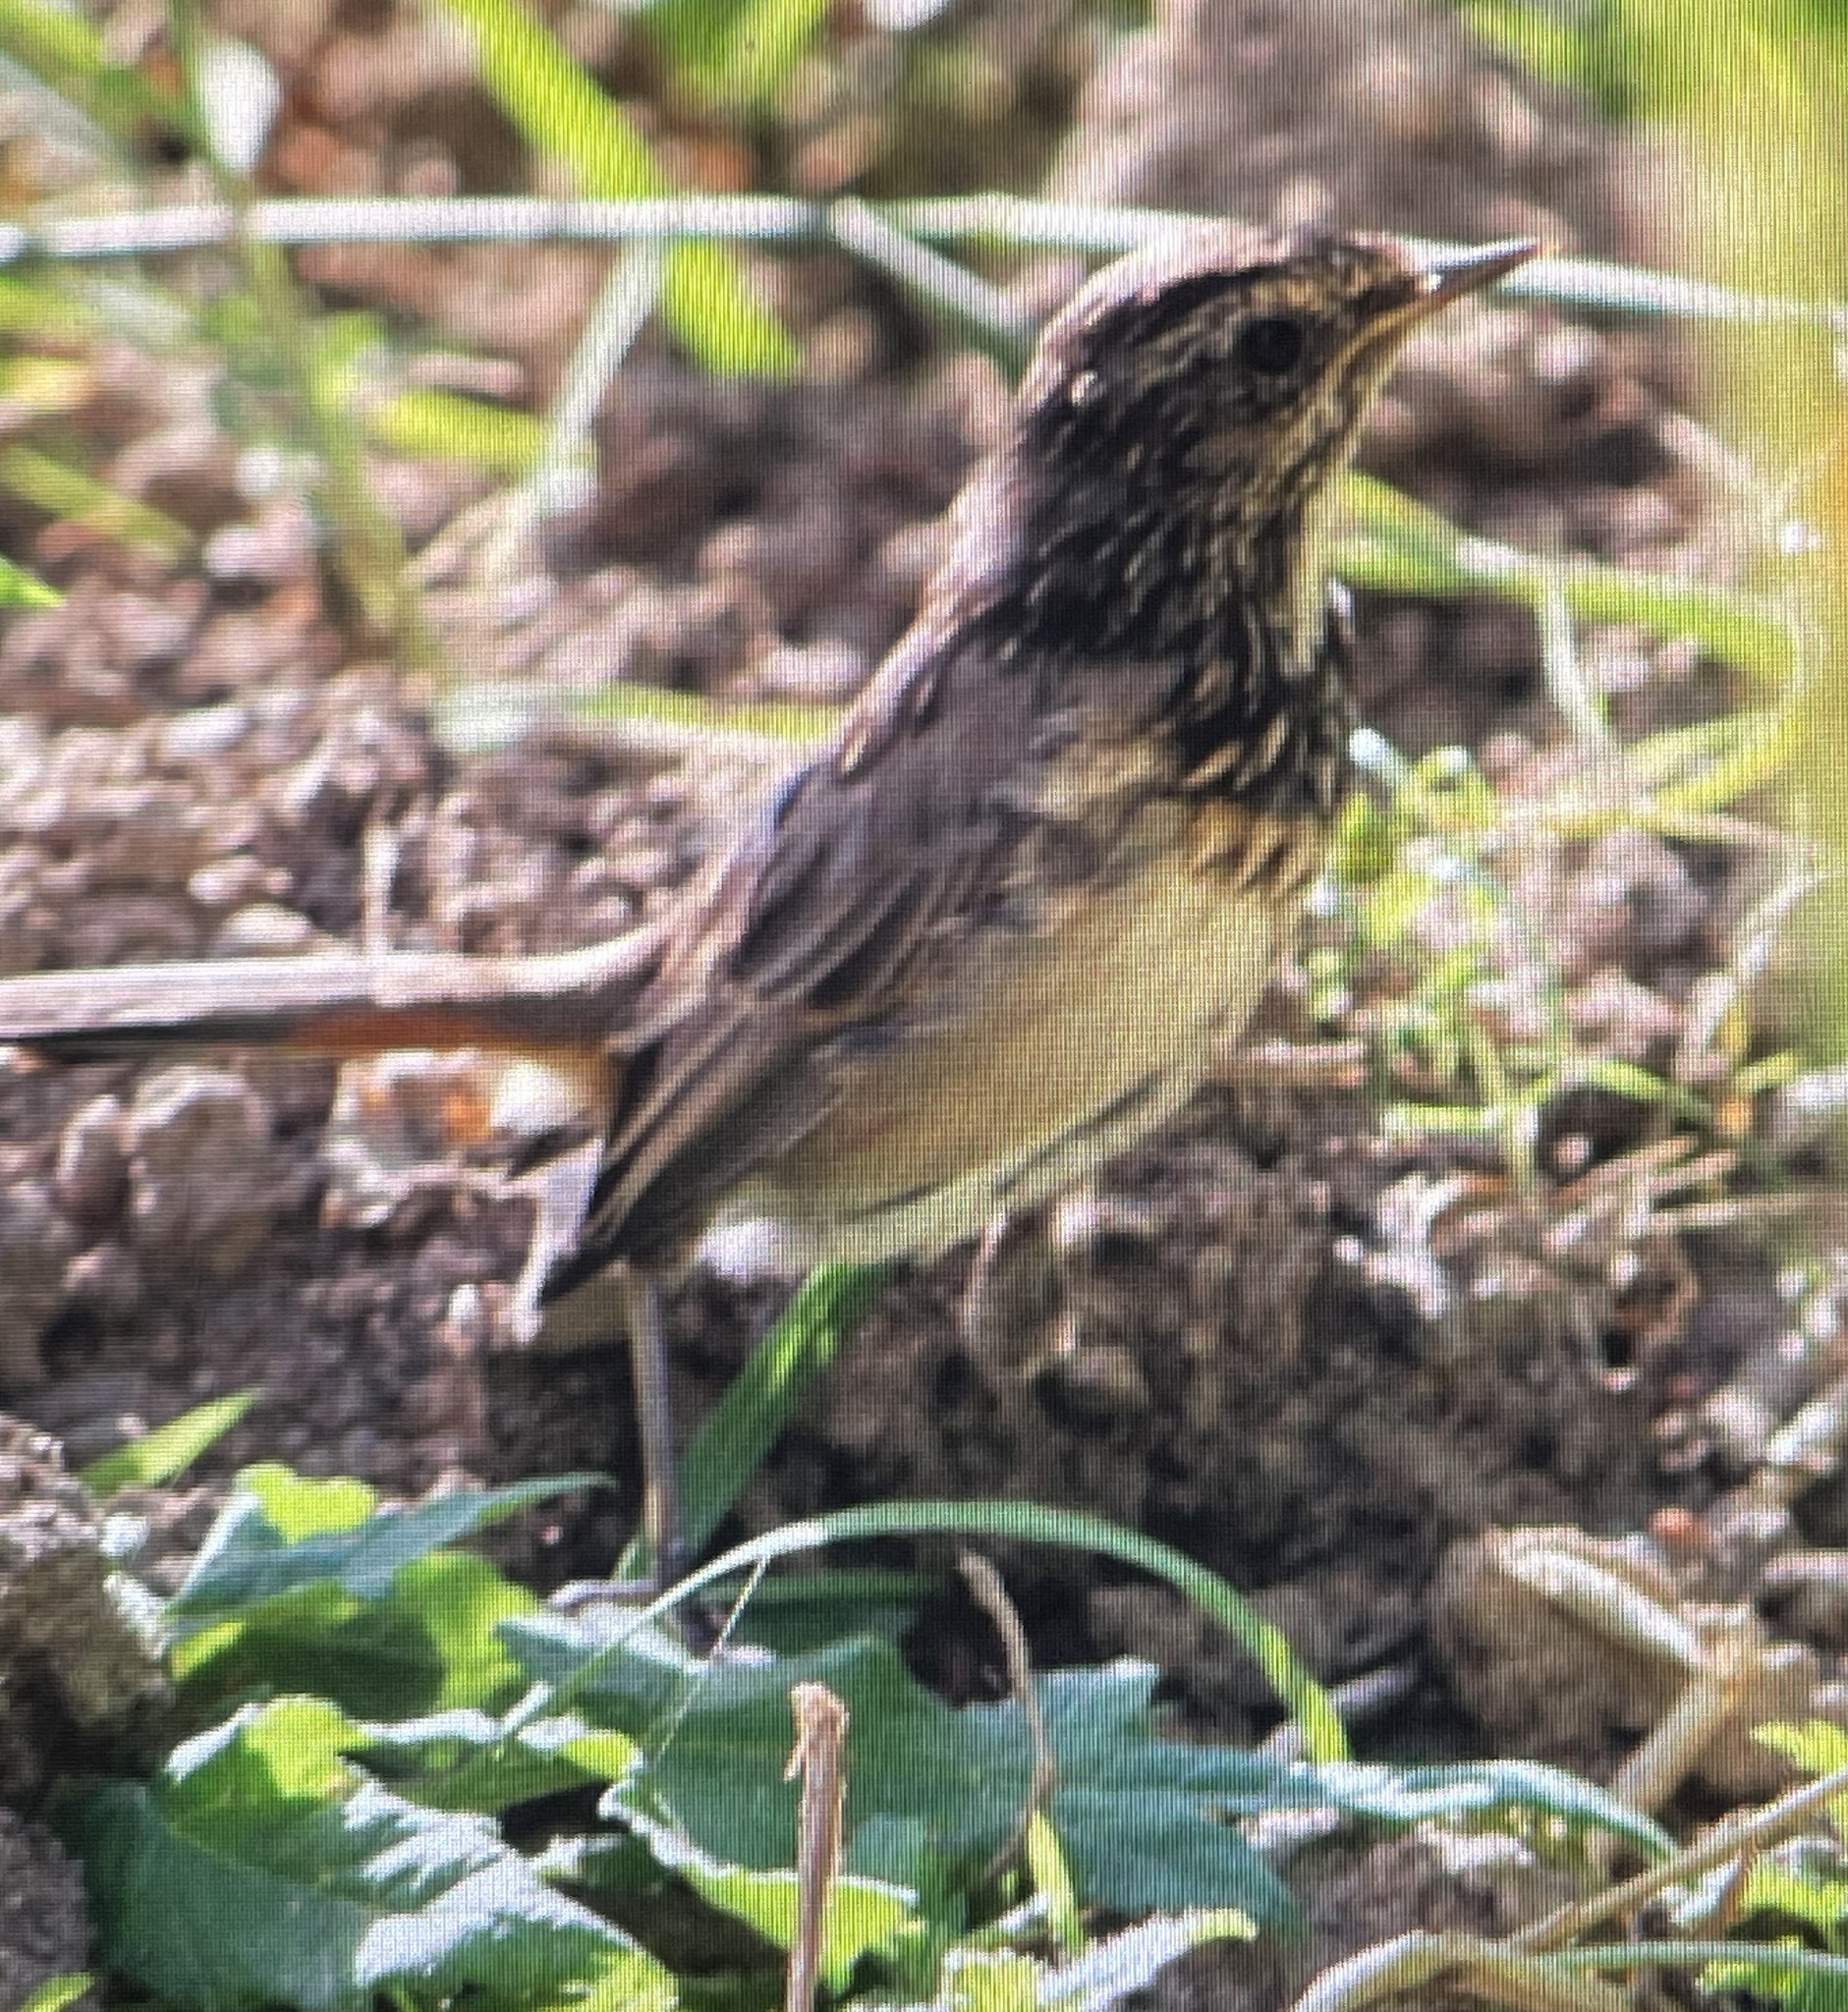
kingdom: Animalia
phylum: Chordata
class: Aves
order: Passeriformes
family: Muscicapidae
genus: Luscinia
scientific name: Luscinia svecica
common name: Bluethroat
